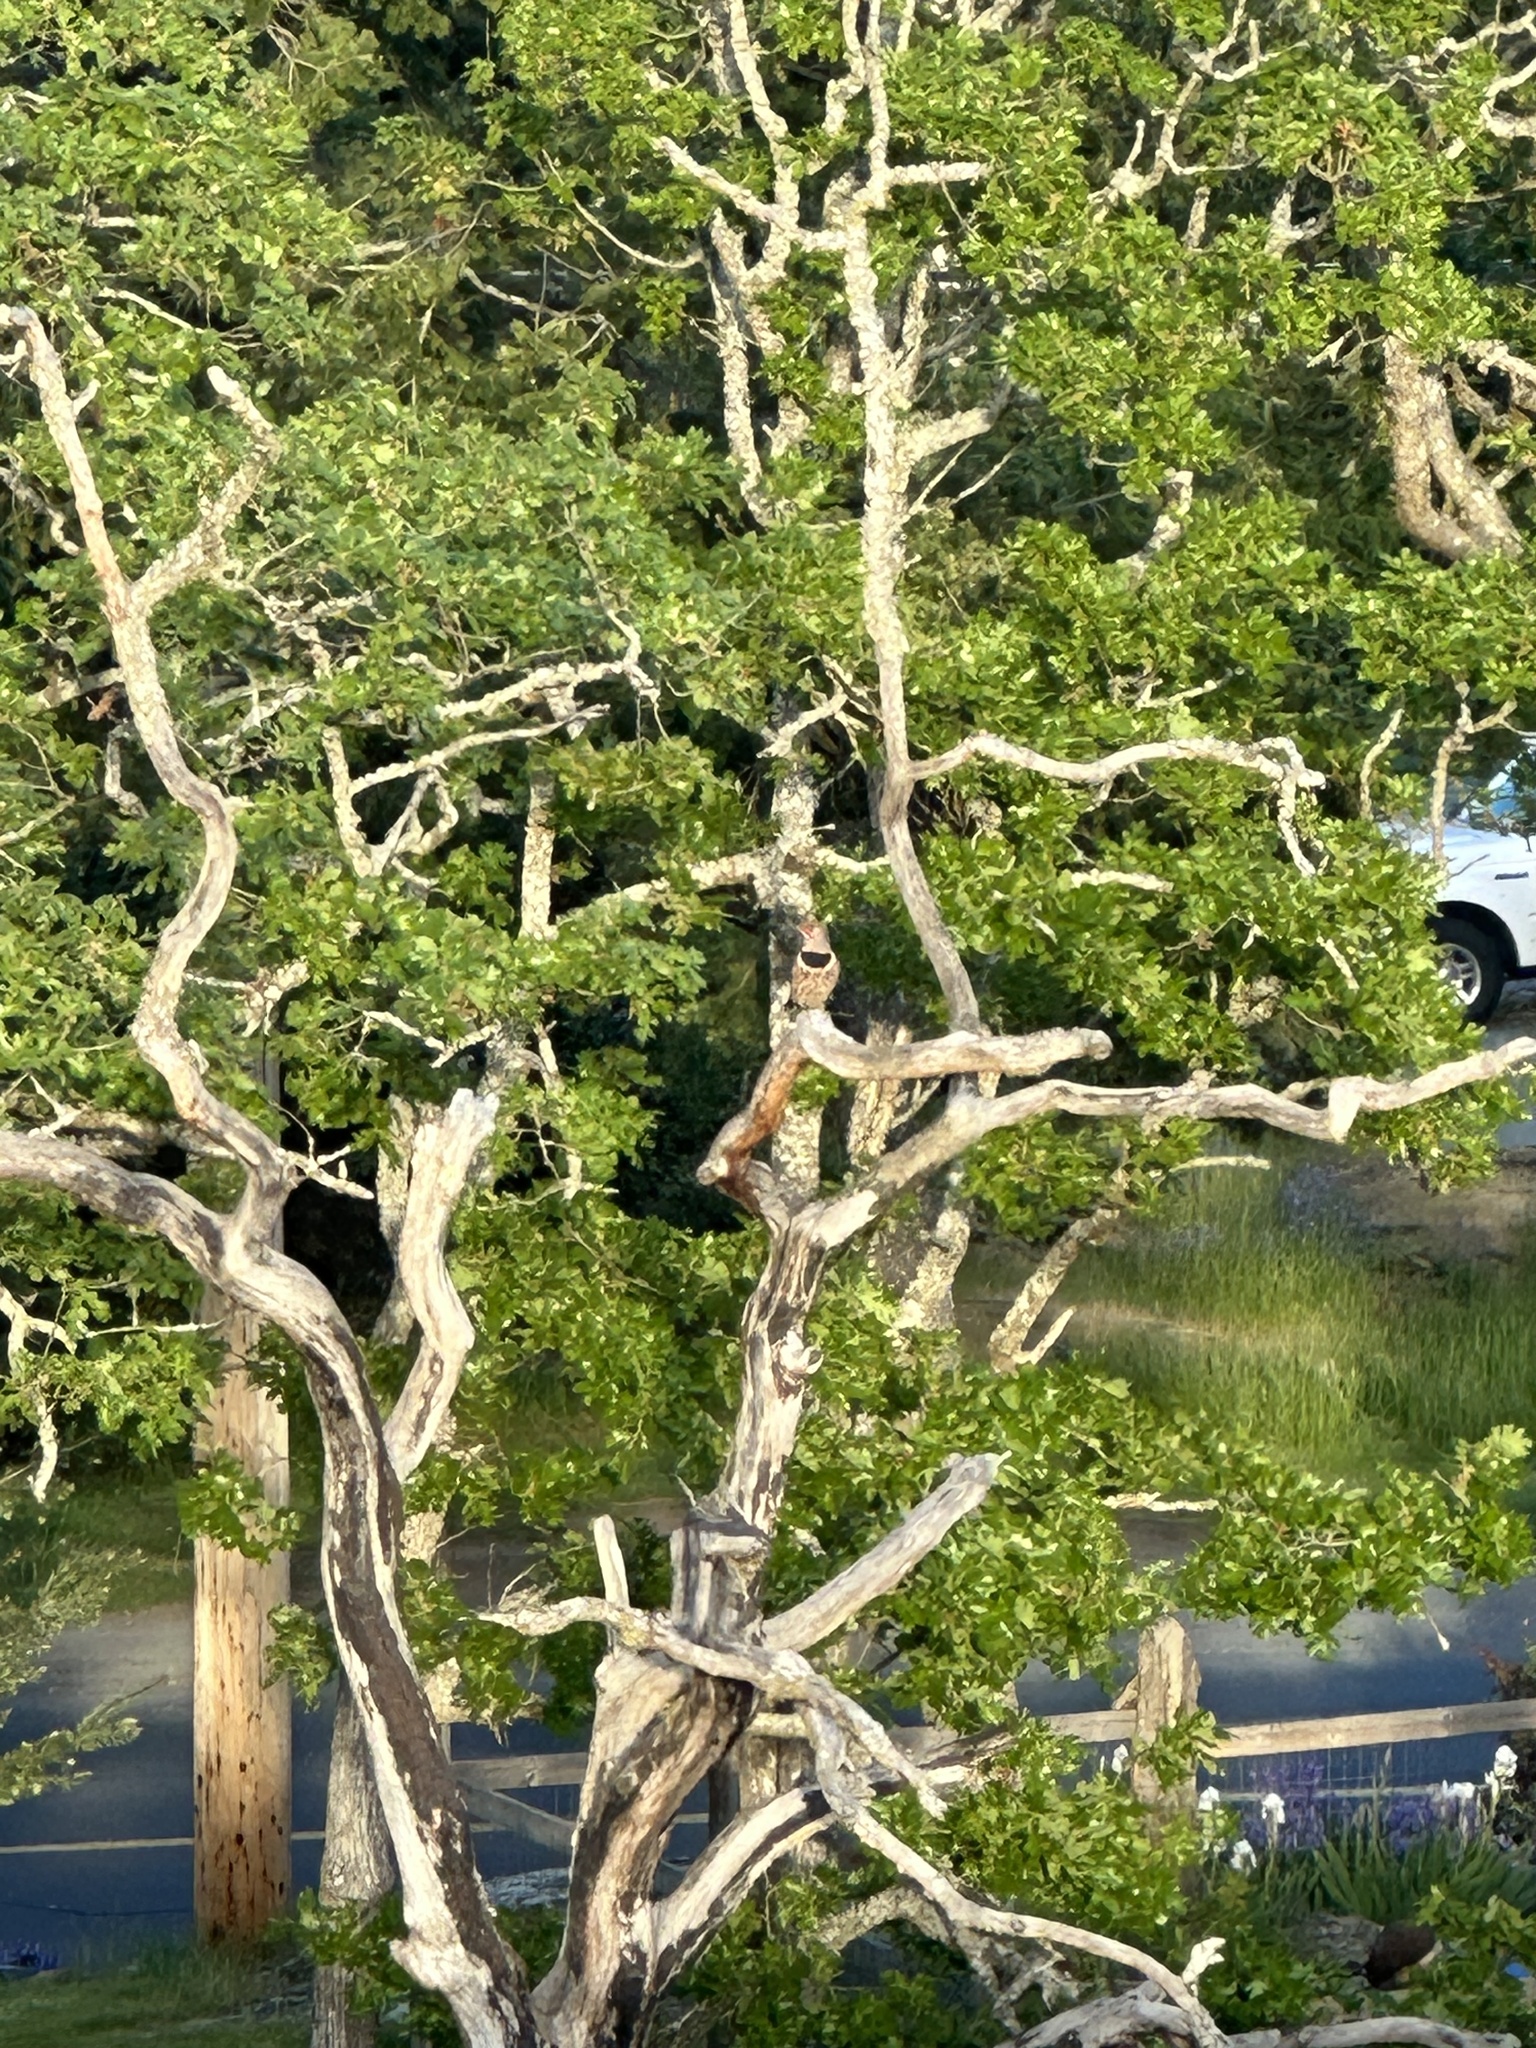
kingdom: Animalia
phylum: Chordata
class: Aves
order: Piciformes
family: Picidae
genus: Colaptes
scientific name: Colaptes auratus
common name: Northern flicker
